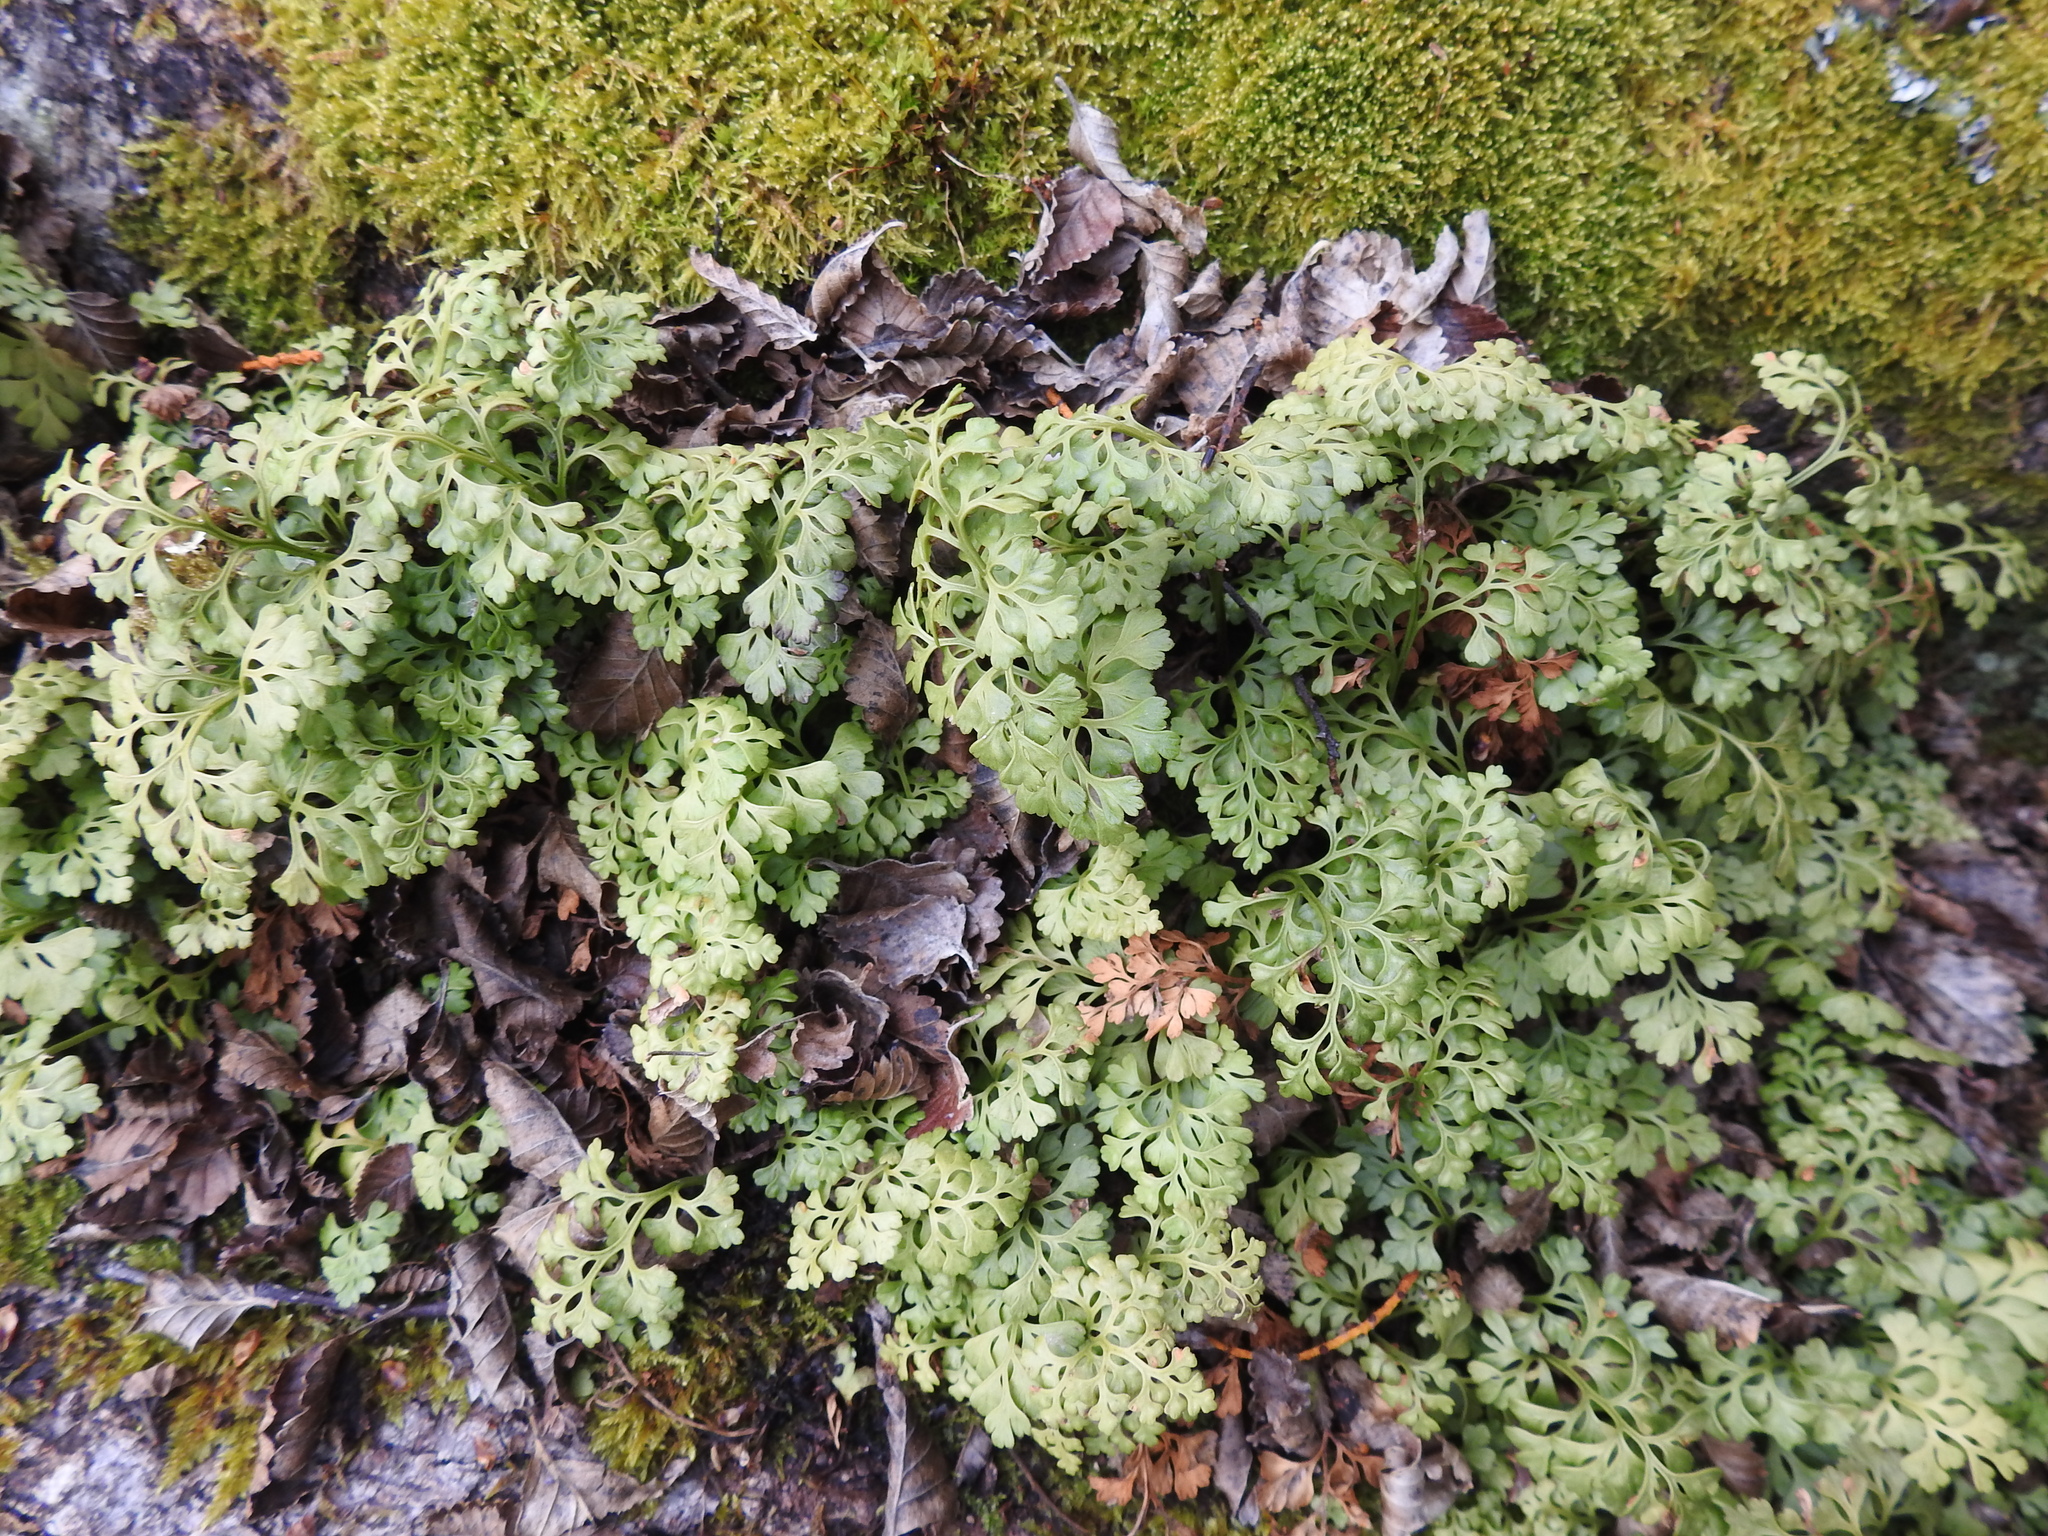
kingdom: Plantae
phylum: Tracheophyta
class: Polypodiopsida
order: Polypodiales
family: Aspleniaceae
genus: Asplenium
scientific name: Asplenium dareoides
